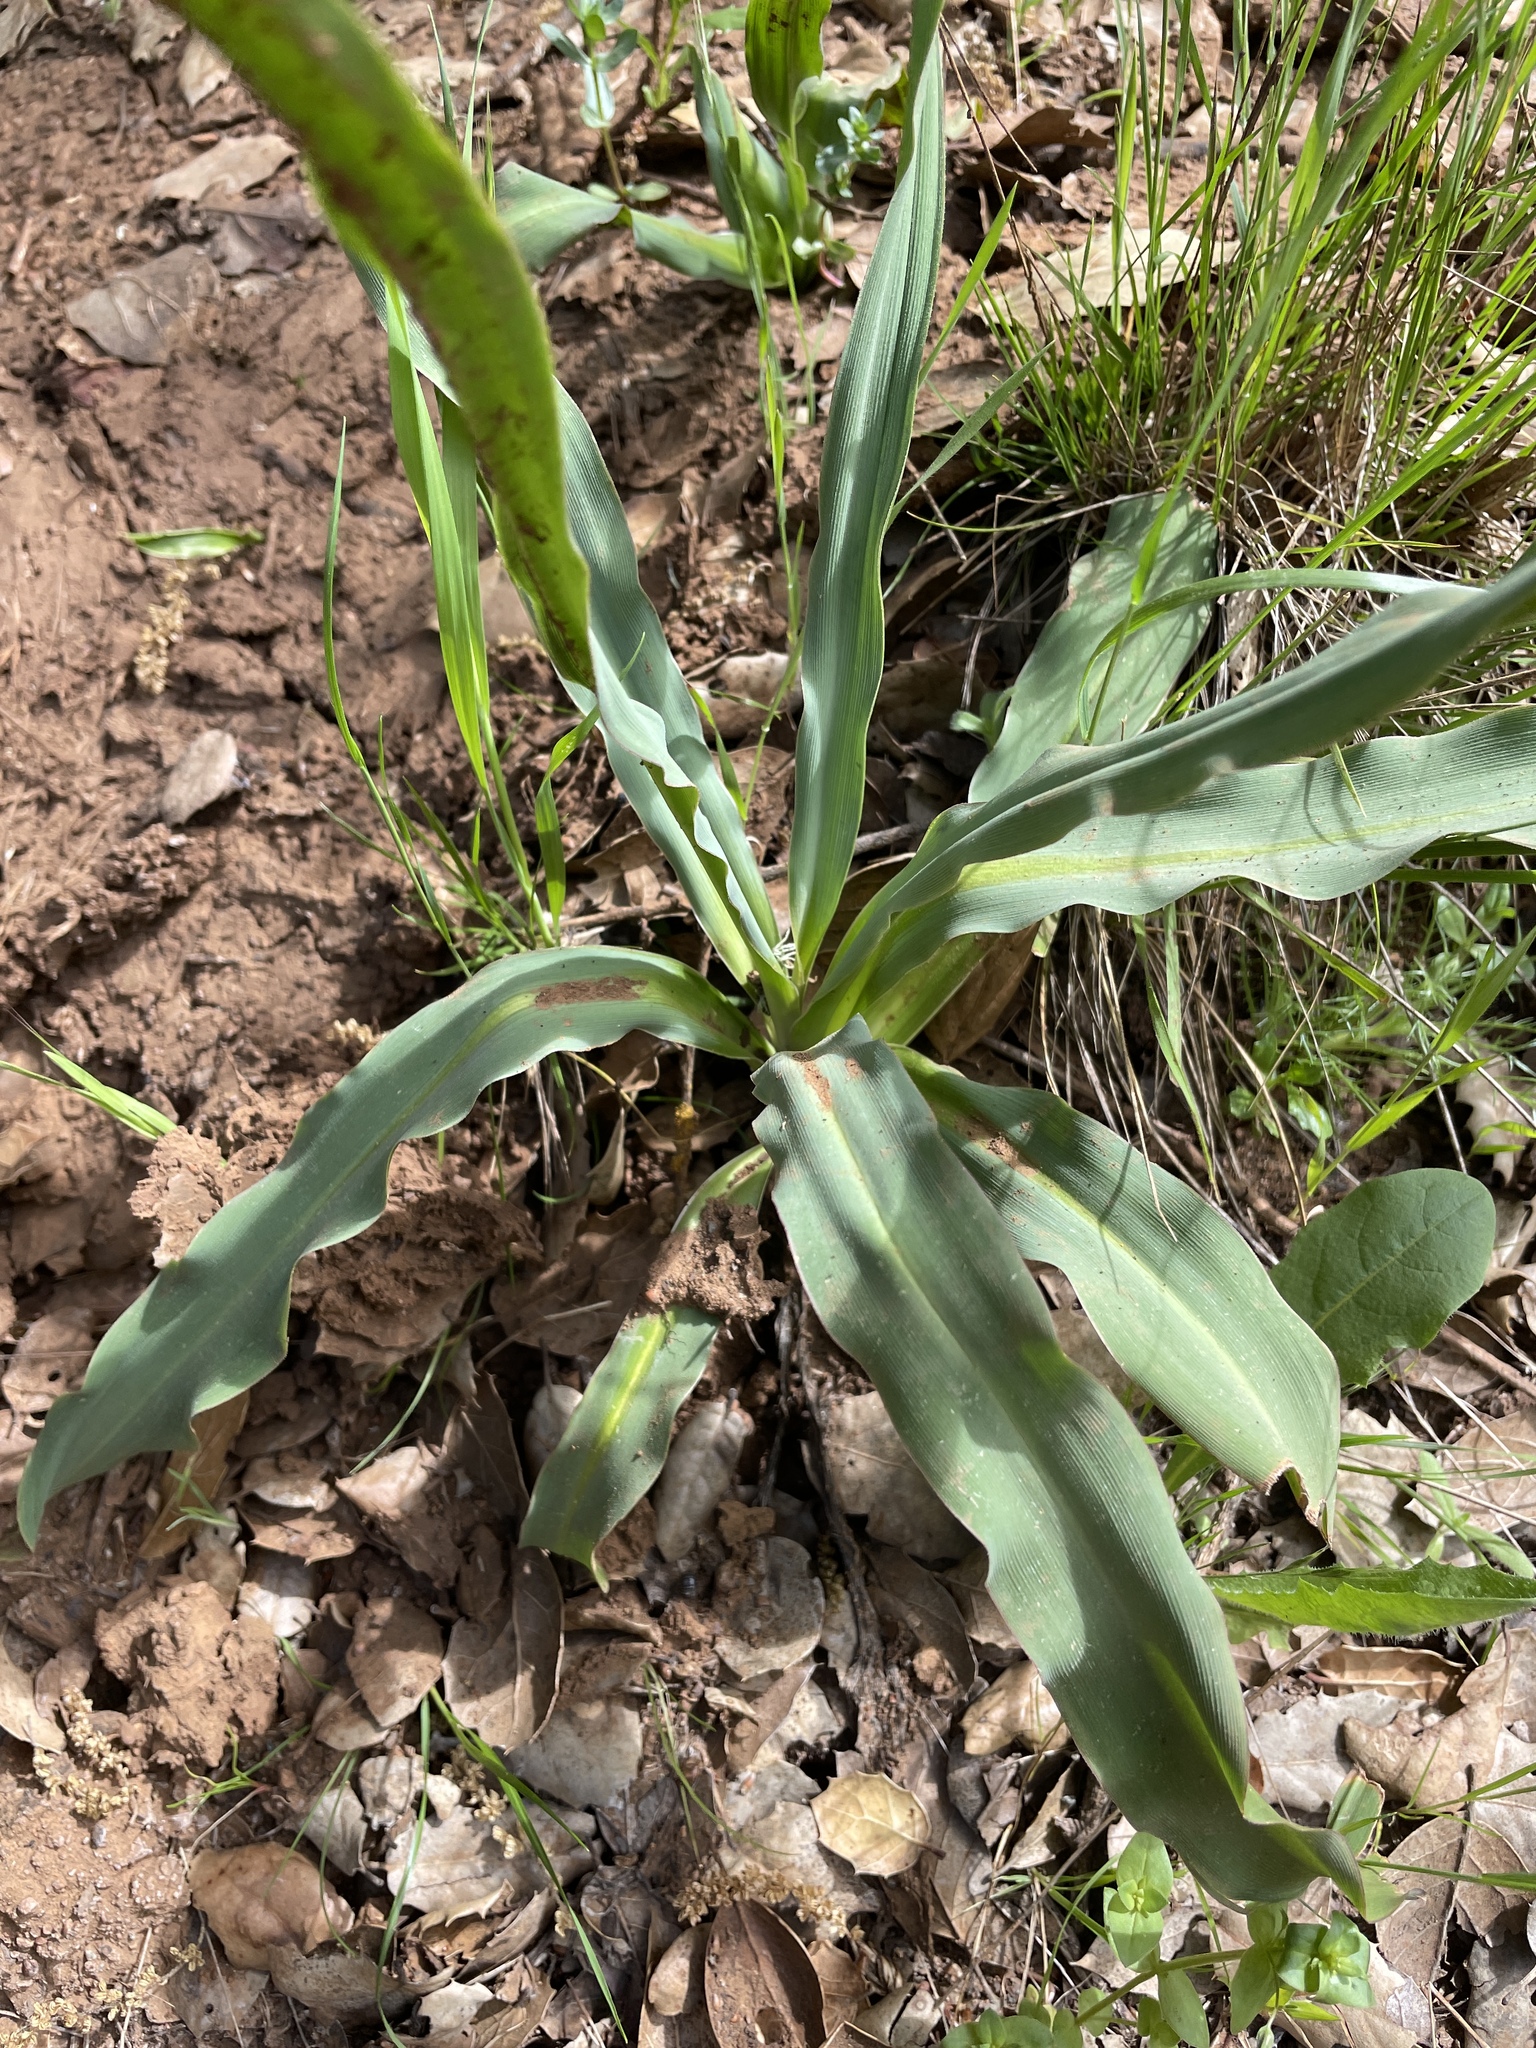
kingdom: Plantae
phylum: Tracheophyta
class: Liliopsida
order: Asparagales
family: Asparagaceae
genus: Chlorogalum
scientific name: Chlorogalum pomeridianum
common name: Amole
